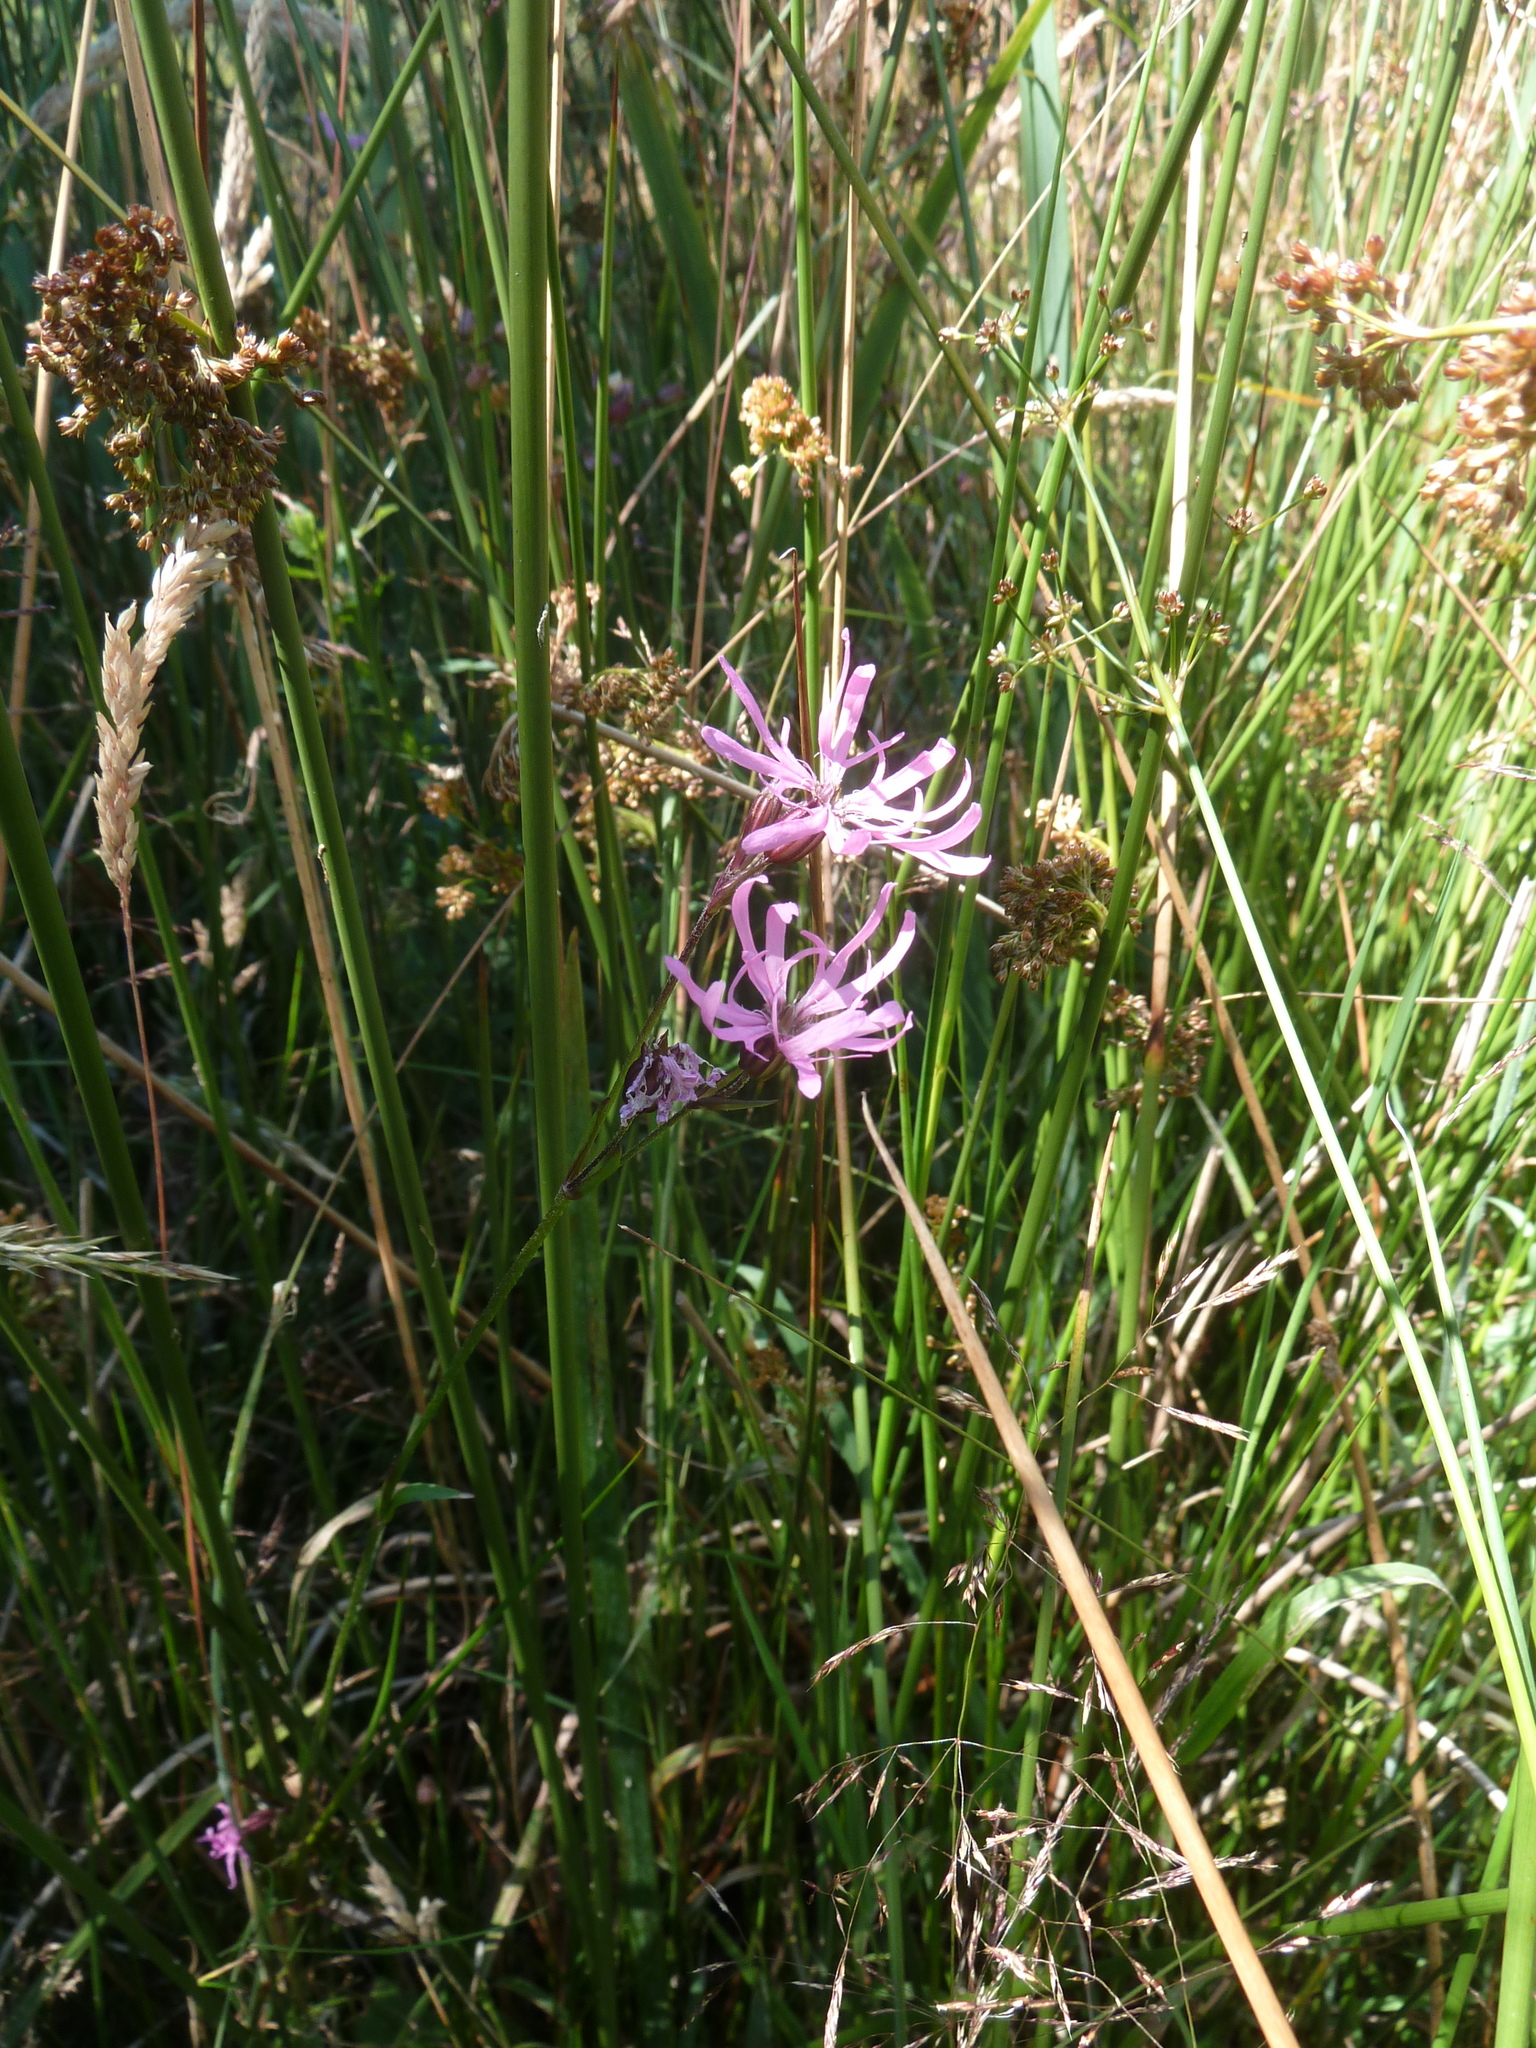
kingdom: Plantae
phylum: Tracheophyta
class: Magnoliopsida
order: Caryophyllales
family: Caryophyllaceae
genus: Silene
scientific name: Silene flos-cuculi
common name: Ragged-robin
